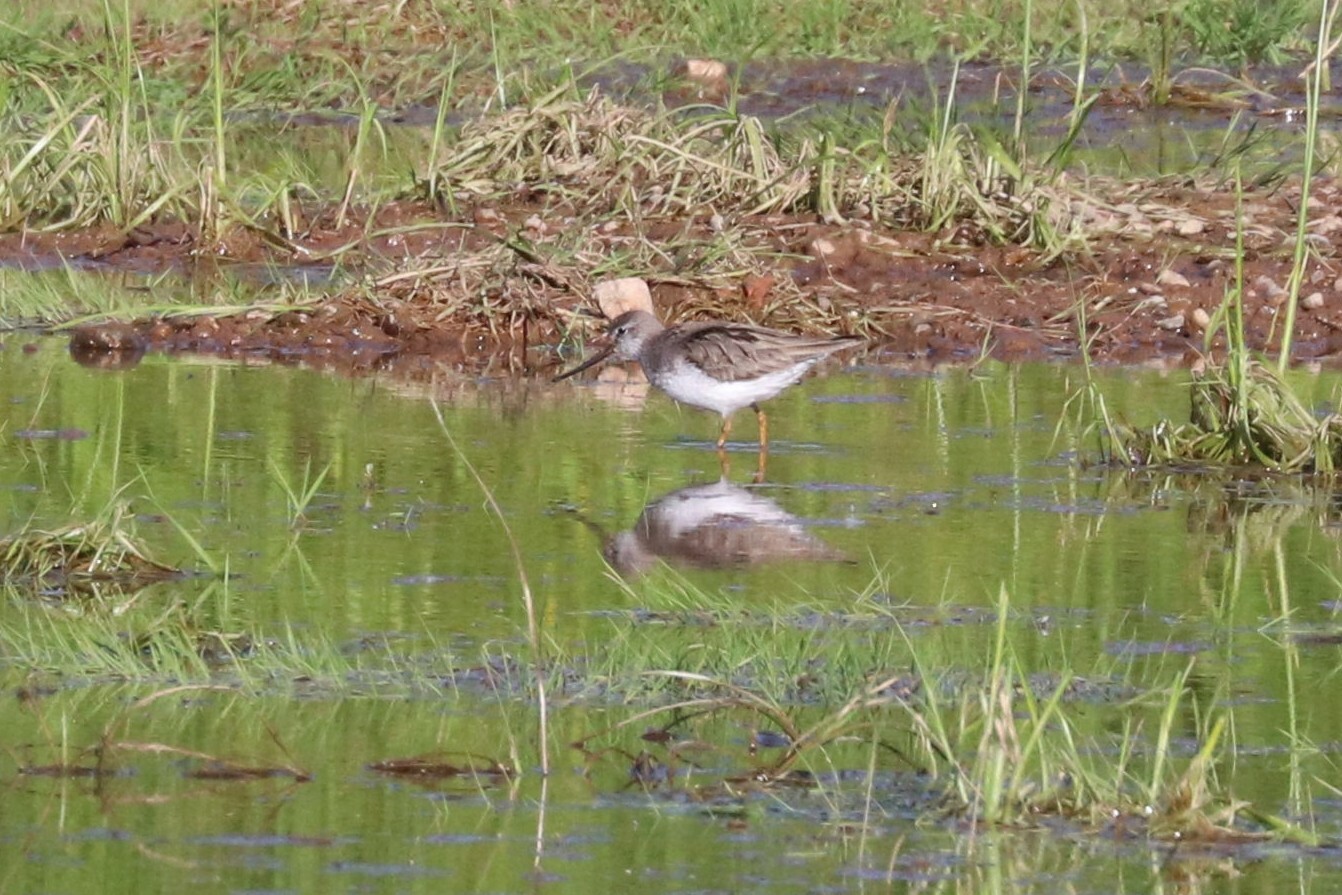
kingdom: Animalia
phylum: Chordata
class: Aves
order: Charadriiformes
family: Scolopacidae
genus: Xenus
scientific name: Xenus cinereus
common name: Terek sandpiper
